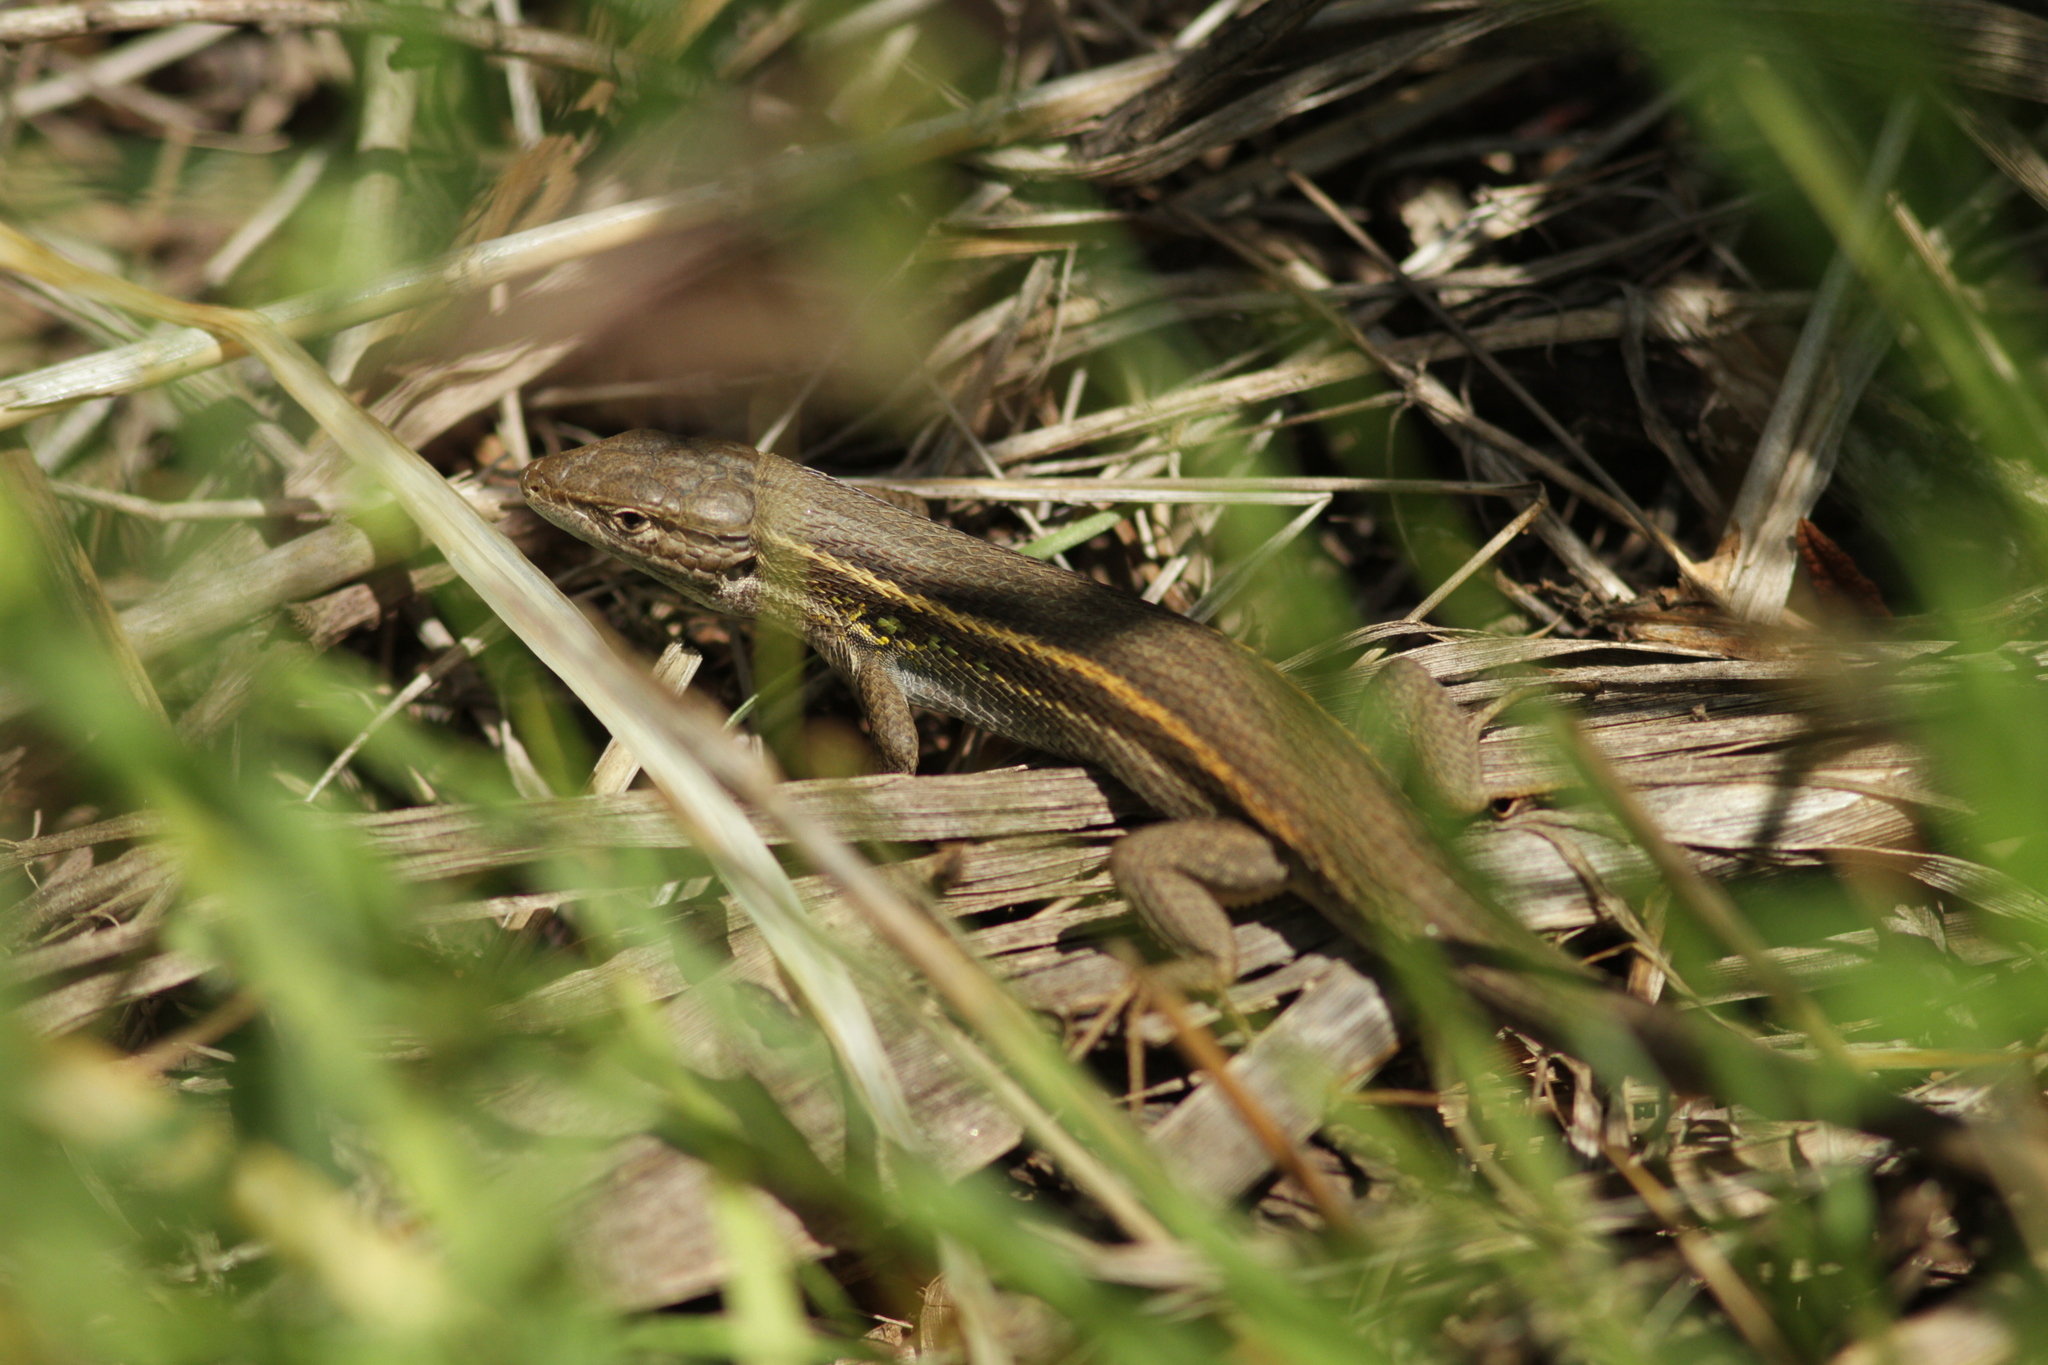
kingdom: Animalia
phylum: Chordata
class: Squamata
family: Lacertidae
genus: Psammodromus
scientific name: Psammodromus algirus
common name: Algerian psammodromus
